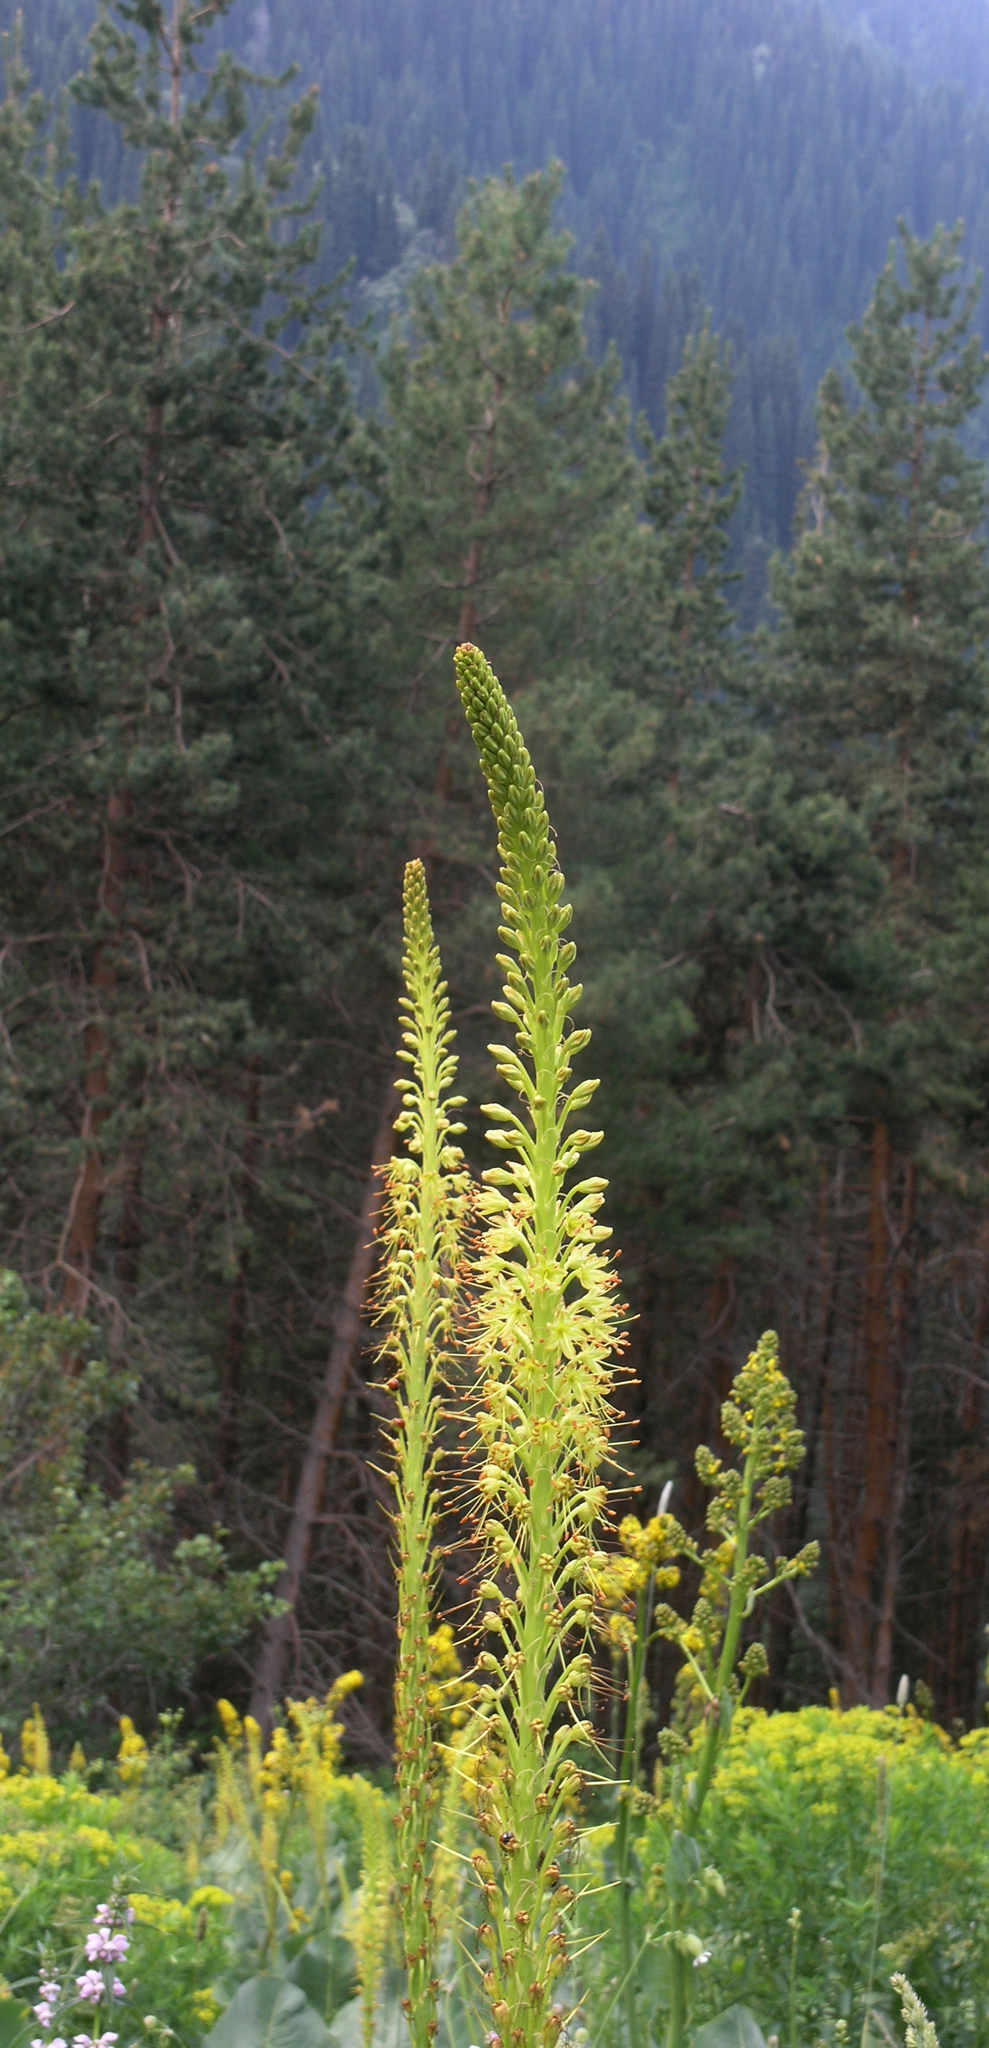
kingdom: Plantae
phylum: Tracheophyta
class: Liliopsida
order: Asparagales
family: Asphodelaceae
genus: Eremurus
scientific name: Eremurus fuscus
